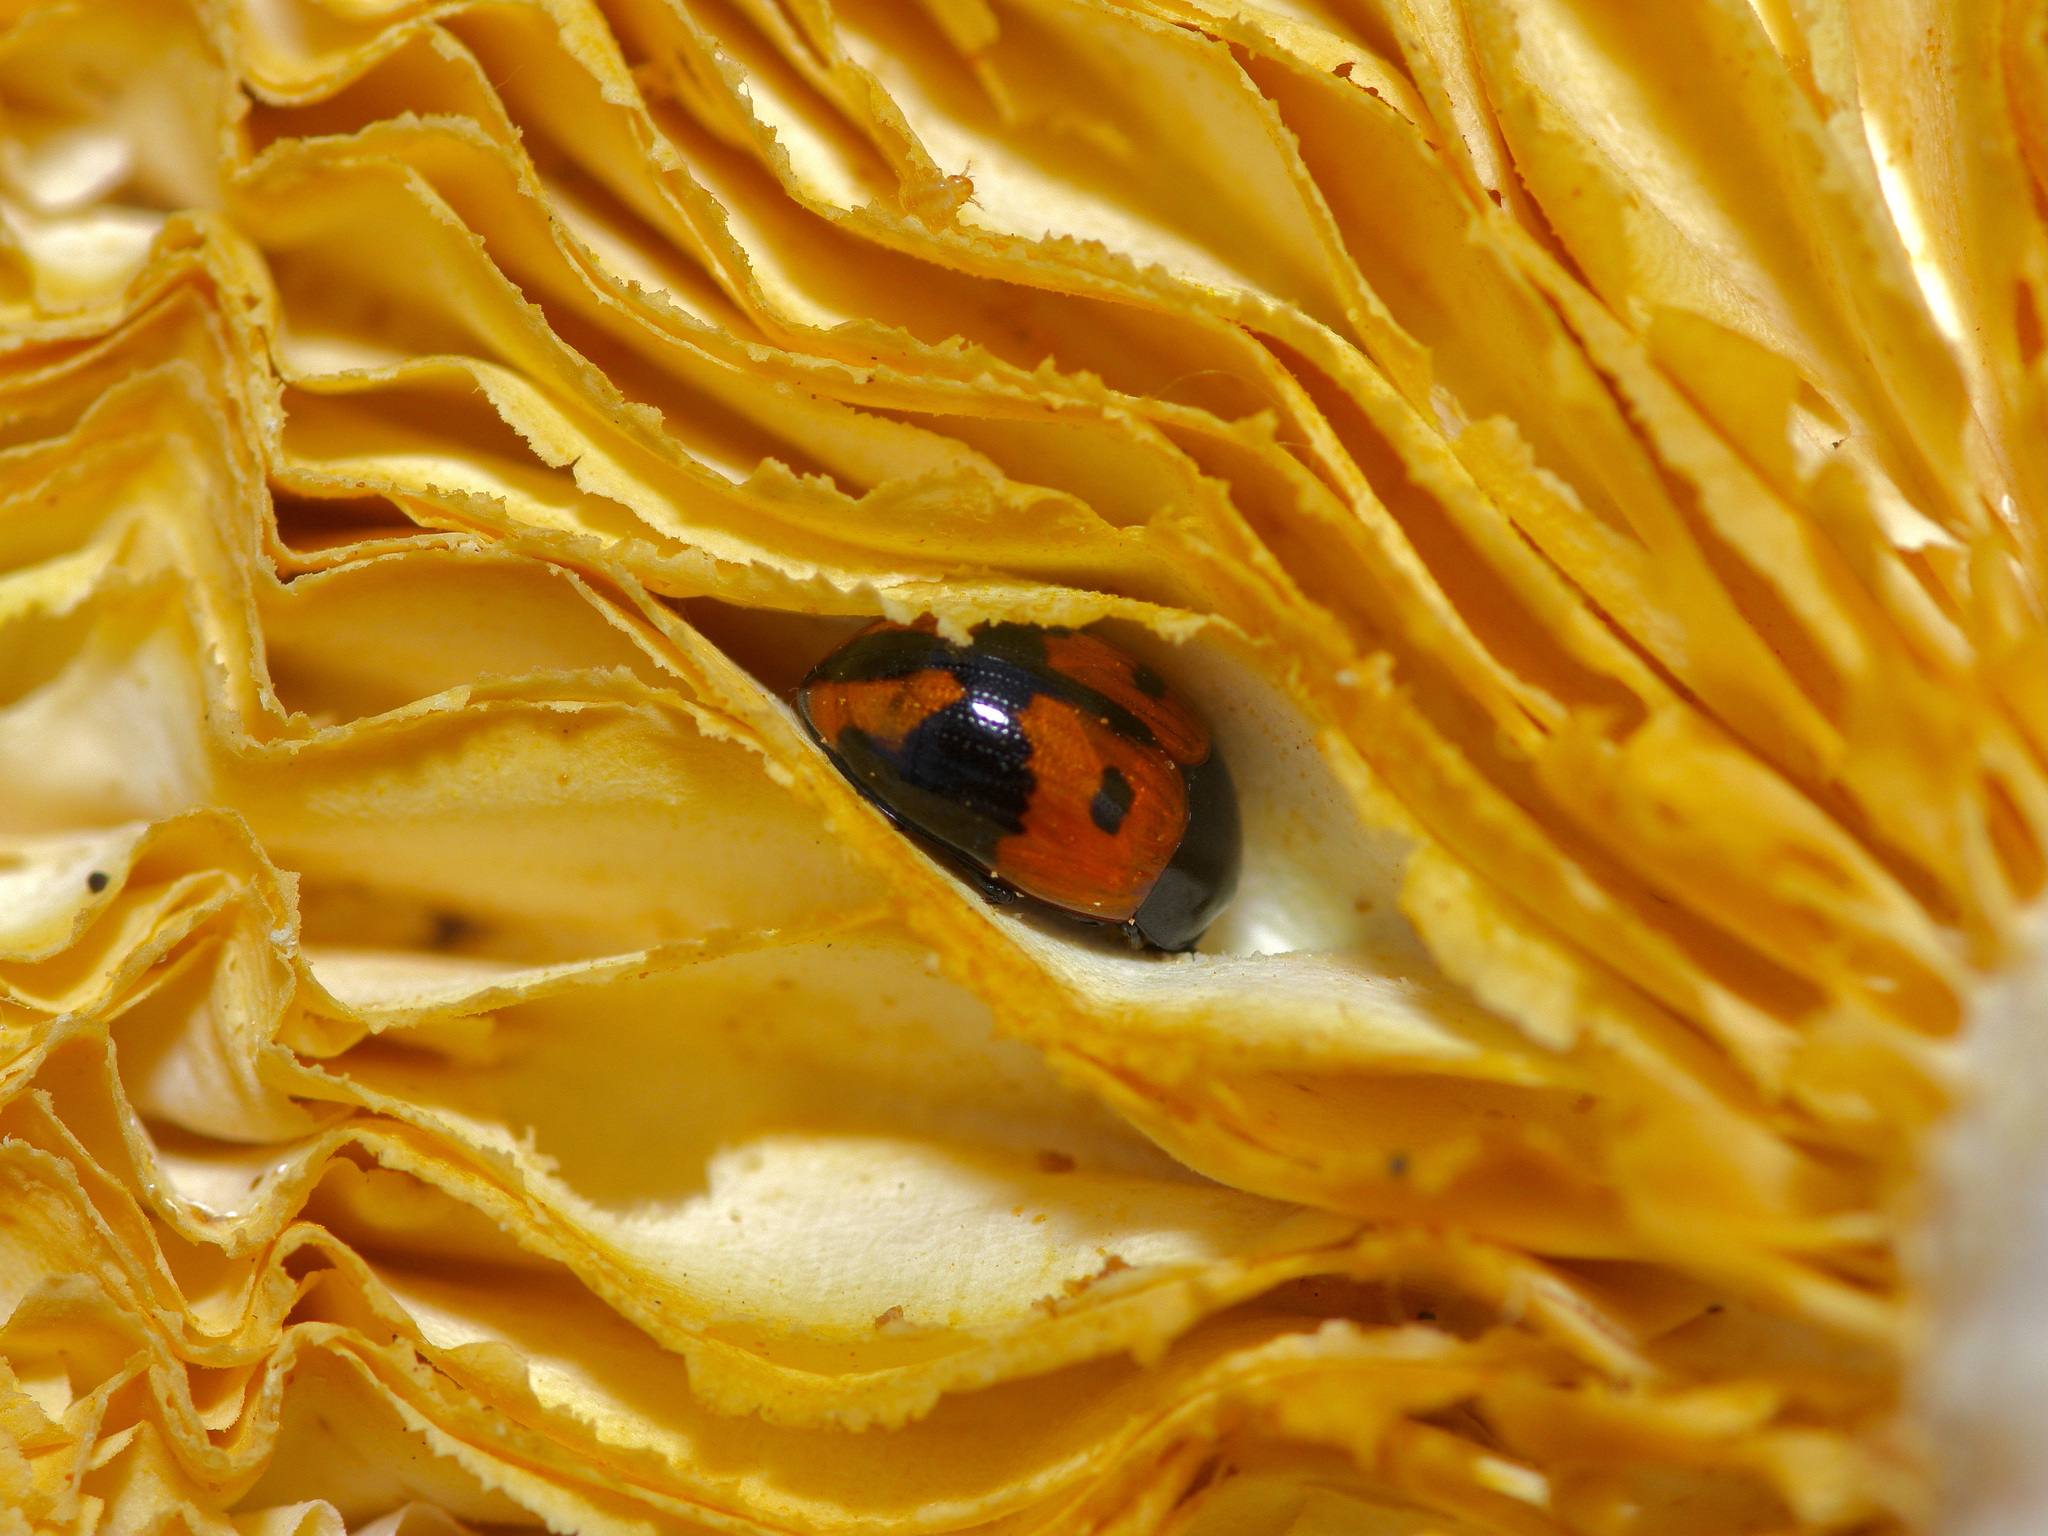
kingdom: Animalia
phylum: Arthropoda
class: Insecta
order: Coleoptera
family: Tenebrionidae
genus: Diaperis
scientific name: Diaperis maculata
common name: Darkling beetle
